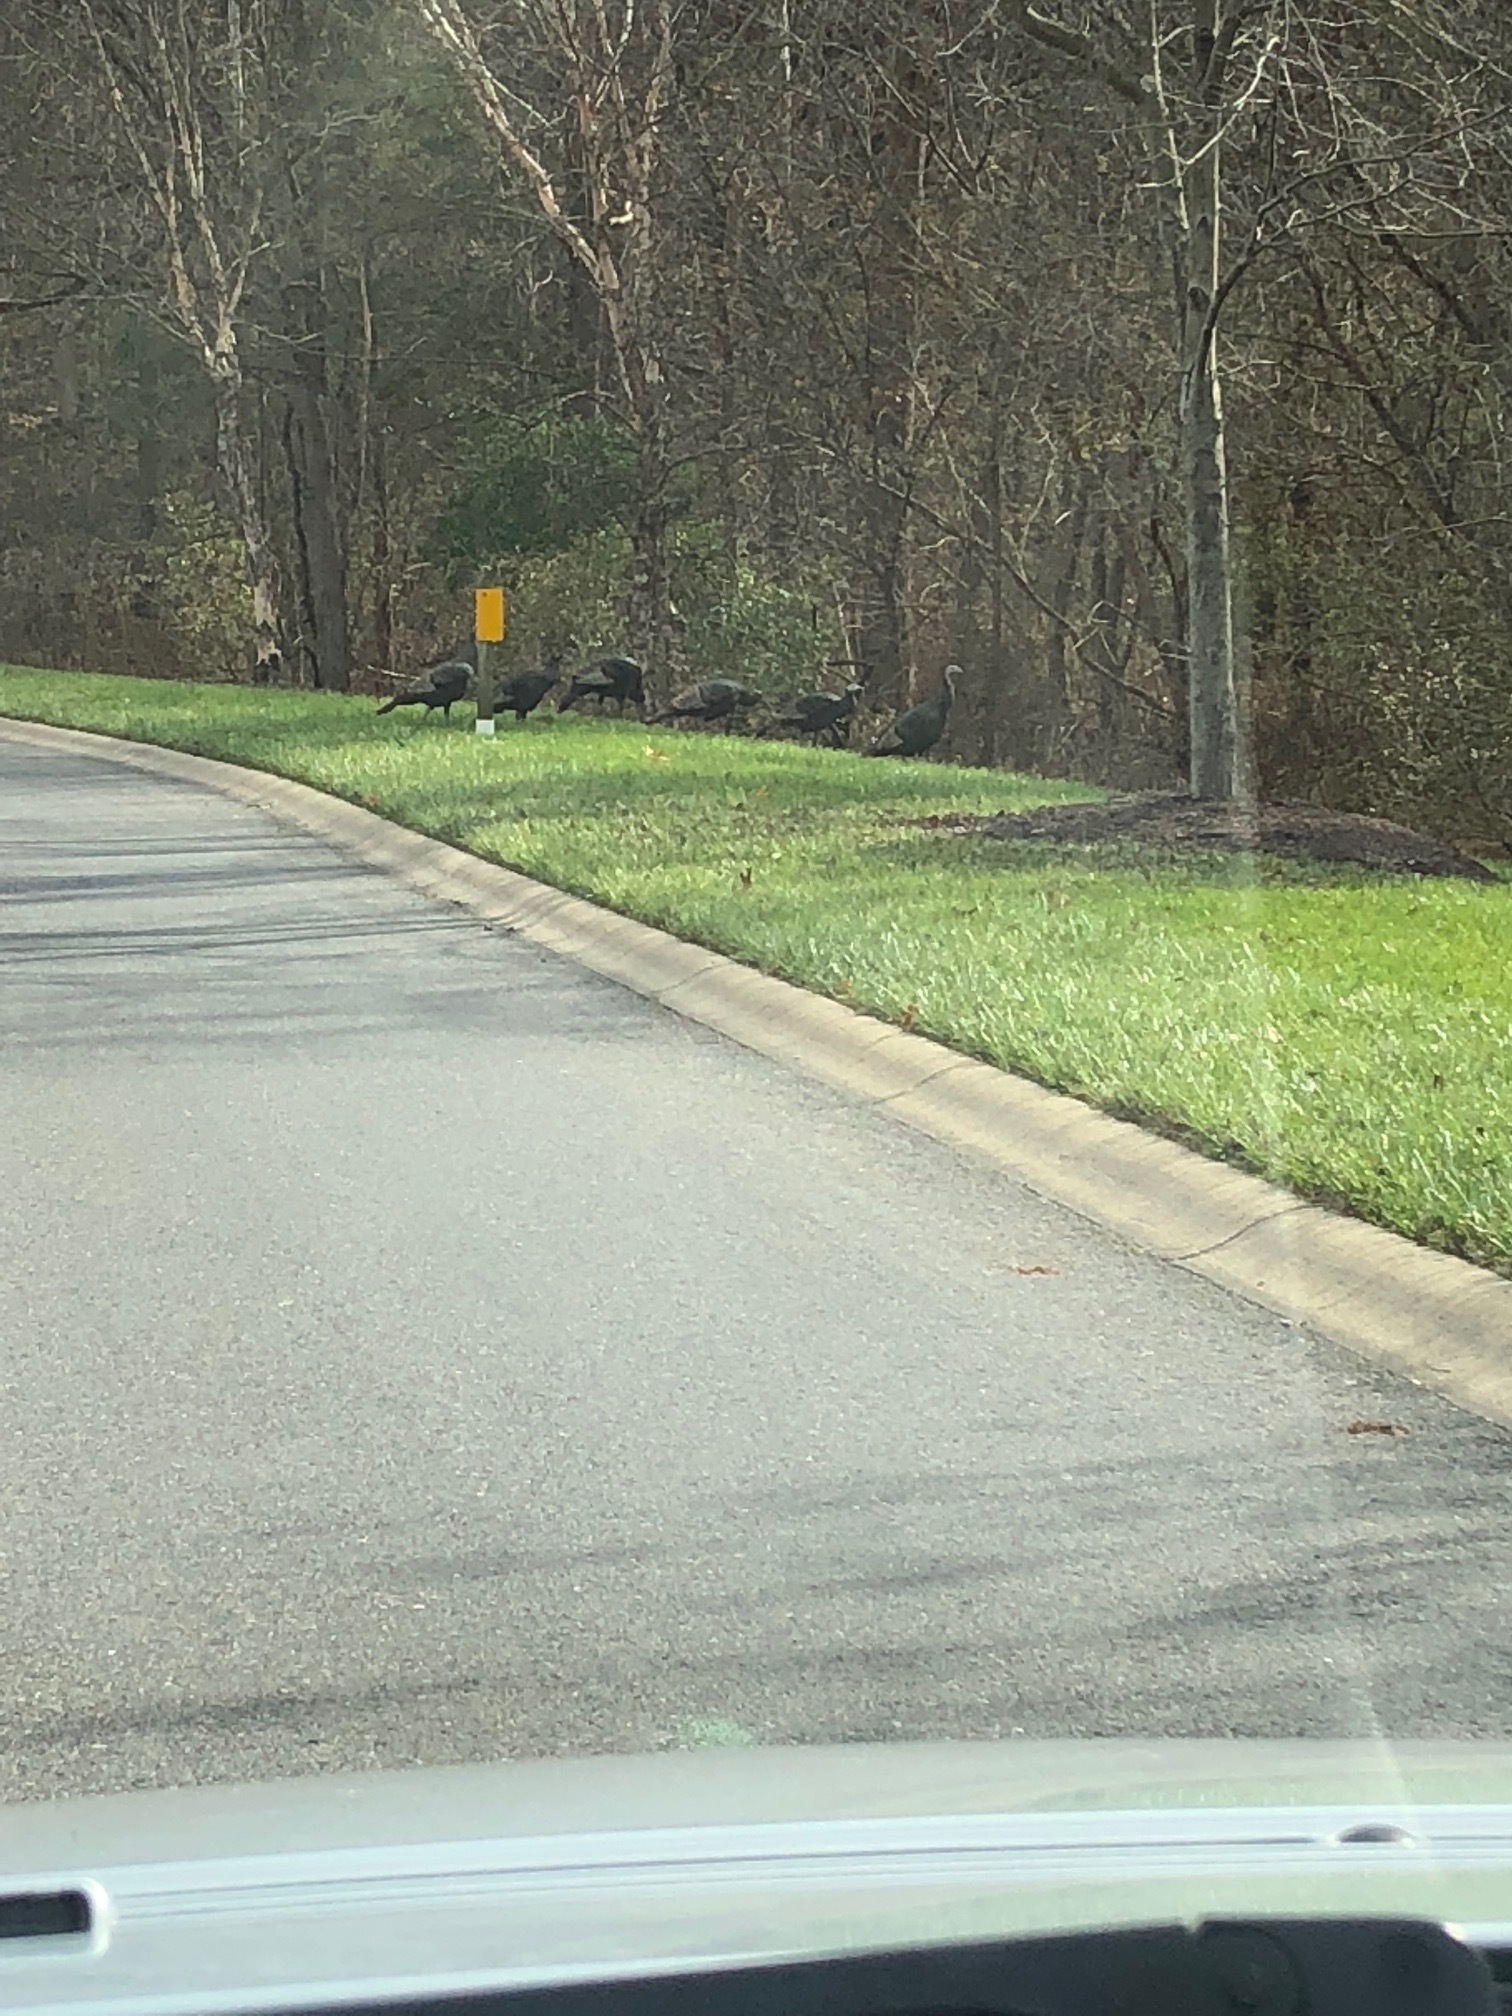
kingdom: Animalia
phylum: Chordata
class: Aves
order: Galliformes
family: Phasianidae
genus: Meleagris
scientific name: Meleagris gallopavo
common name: Wild turkey
